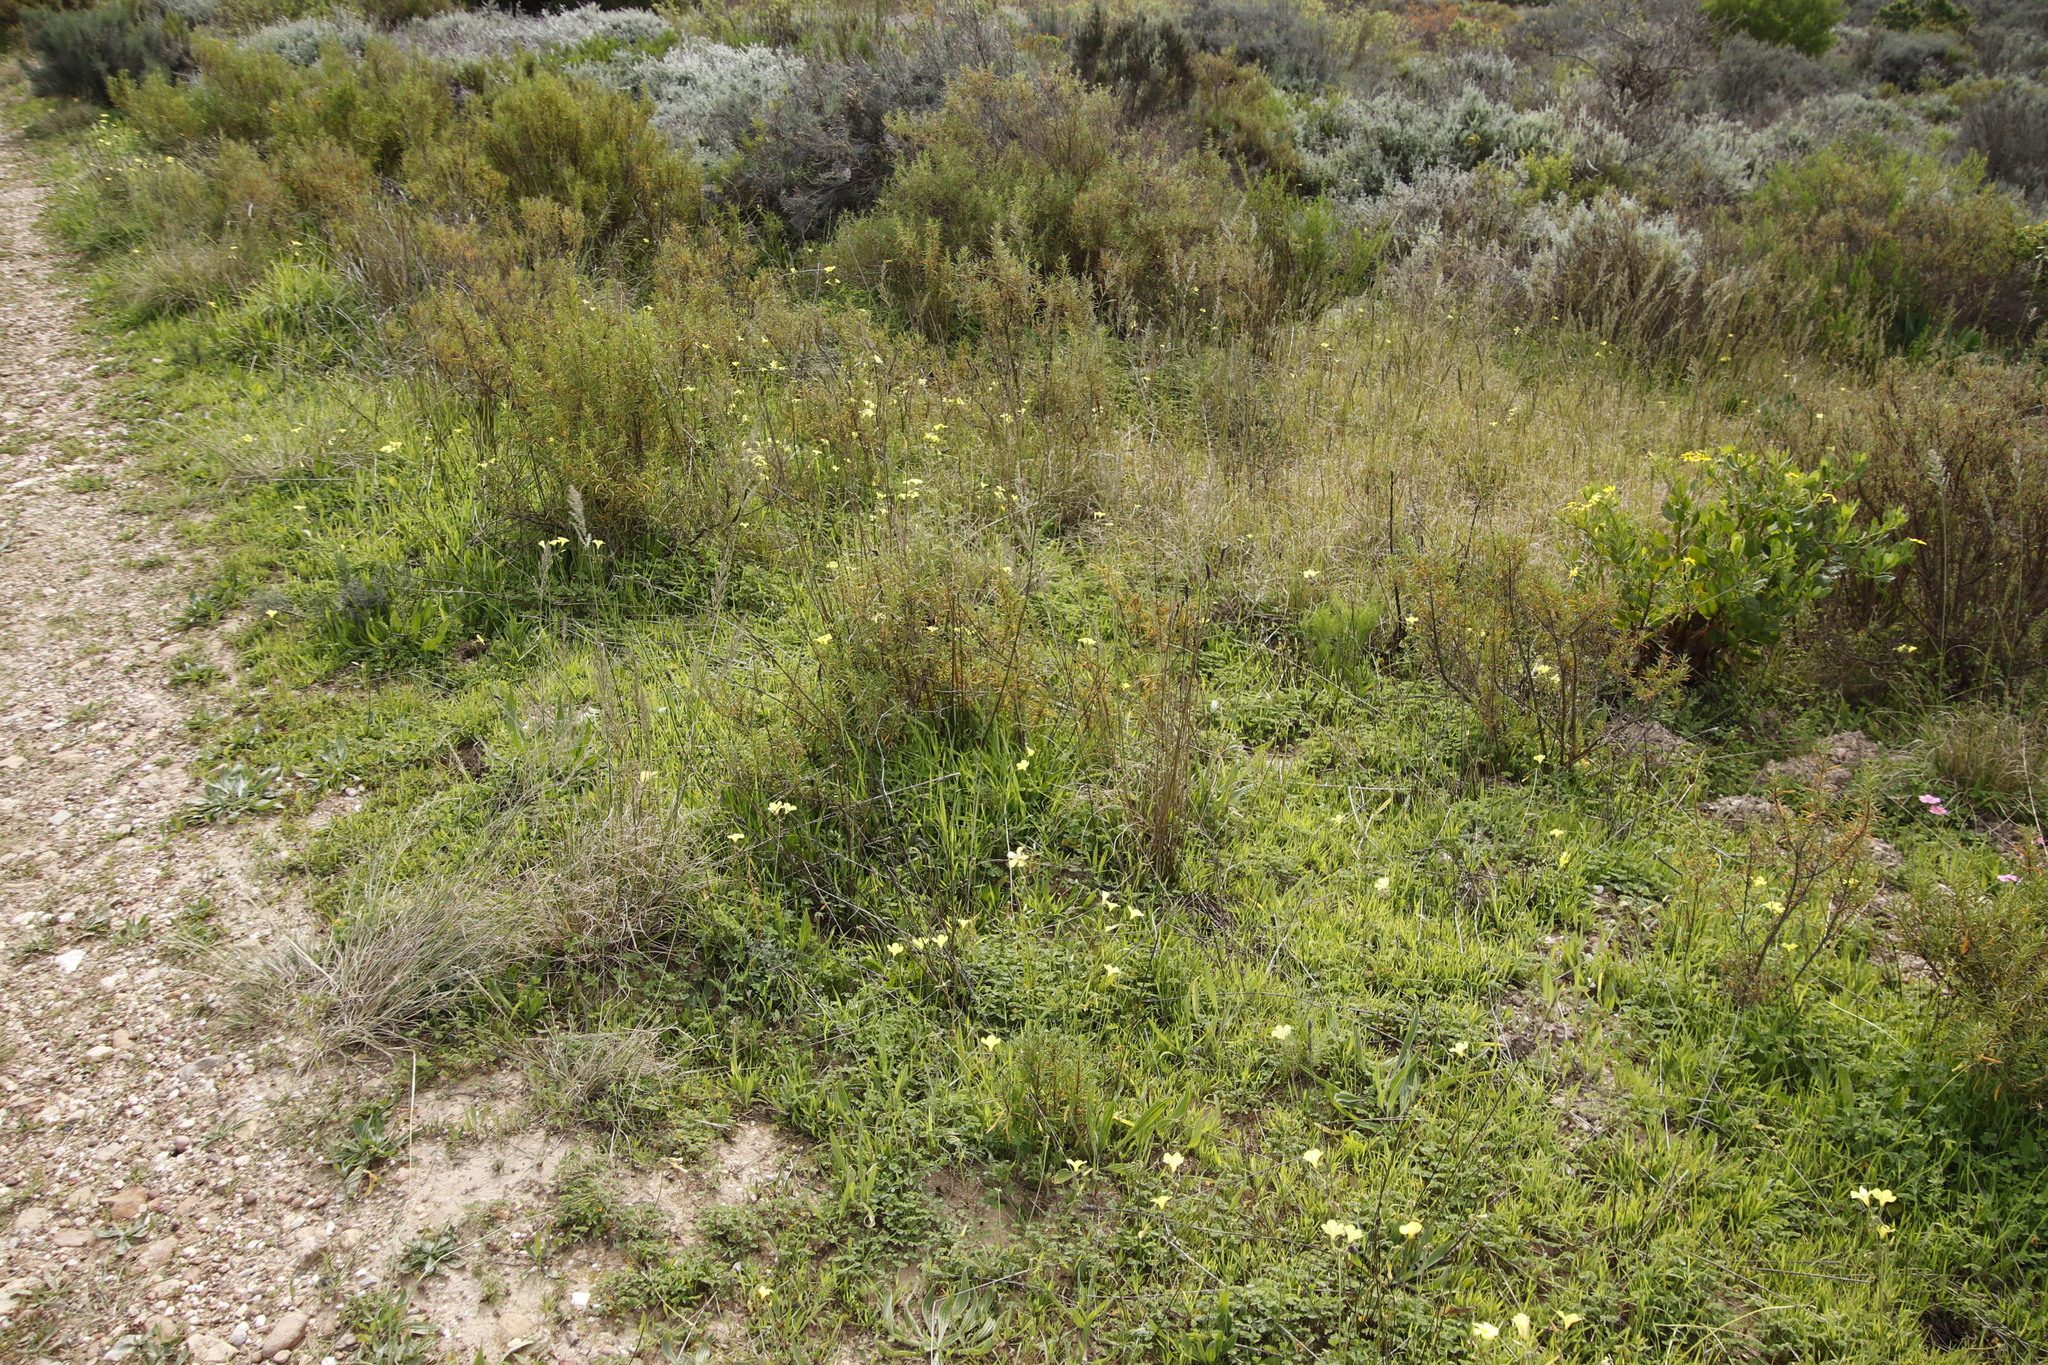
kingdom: Plantae
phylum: Tracheophyta
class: Magnoliopsida
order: Oxalidales
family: Oxalidaceae
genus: Oxalis
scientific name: Oxalis pes-caprae
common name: Bermuda-buttercup
